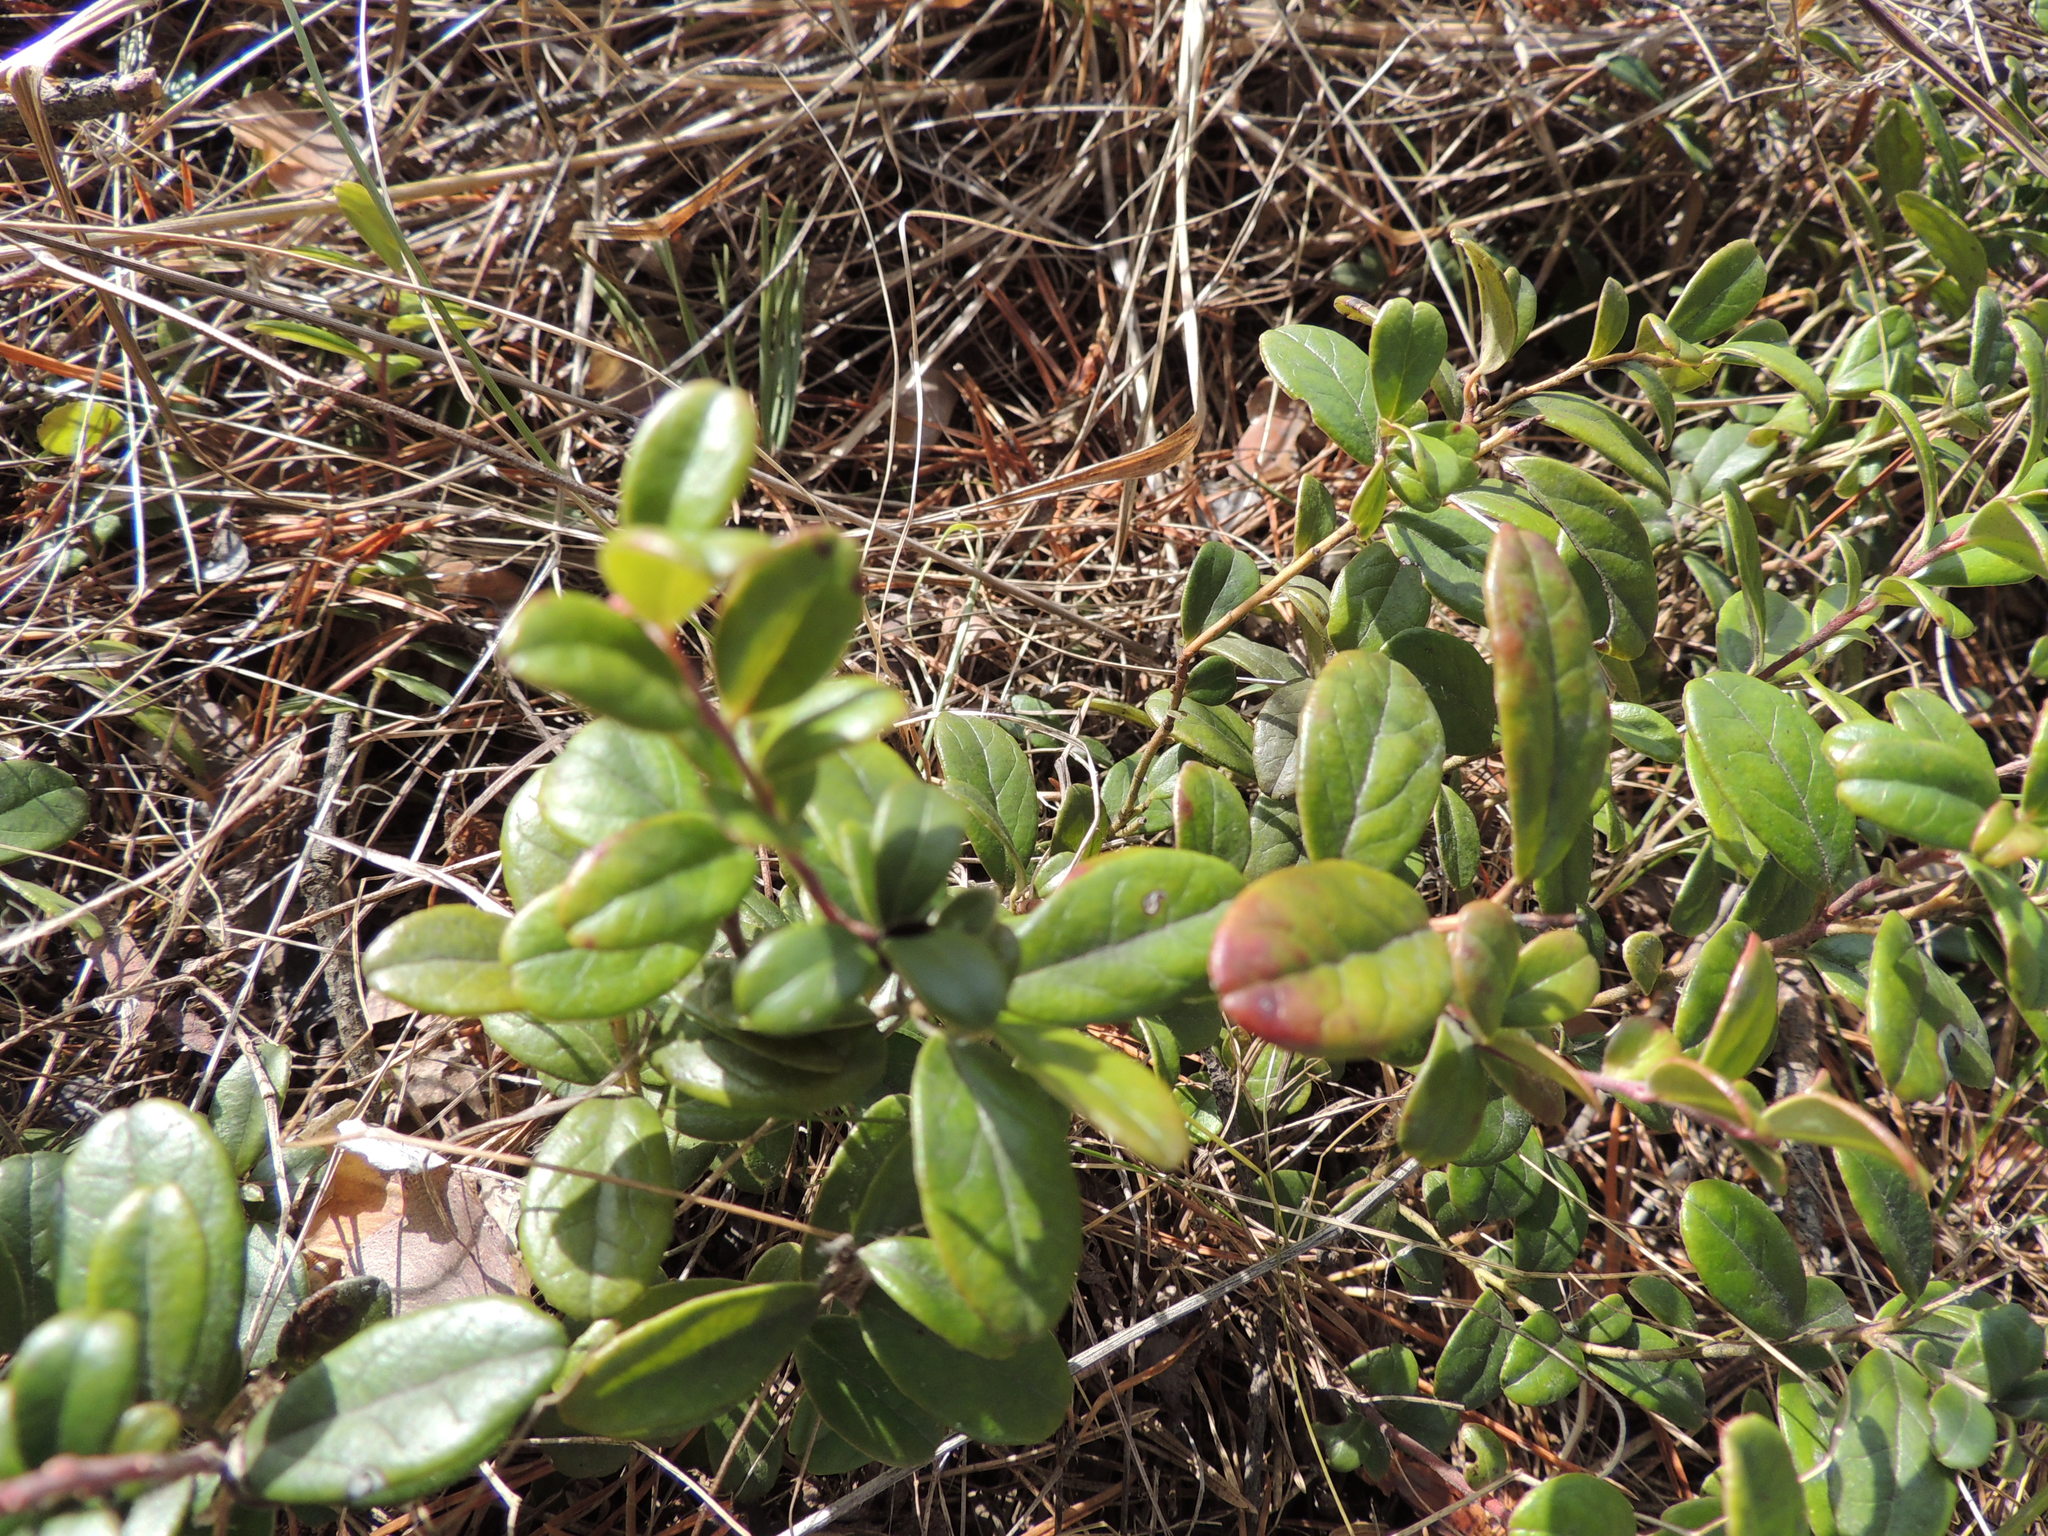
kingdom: Plantae
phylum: Tracheophyta
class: Magnoliopsida
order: Ericales
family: Ericaceae
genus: Vaccinium
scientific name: Vaccinium vitis-idaea
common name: Cowberry
